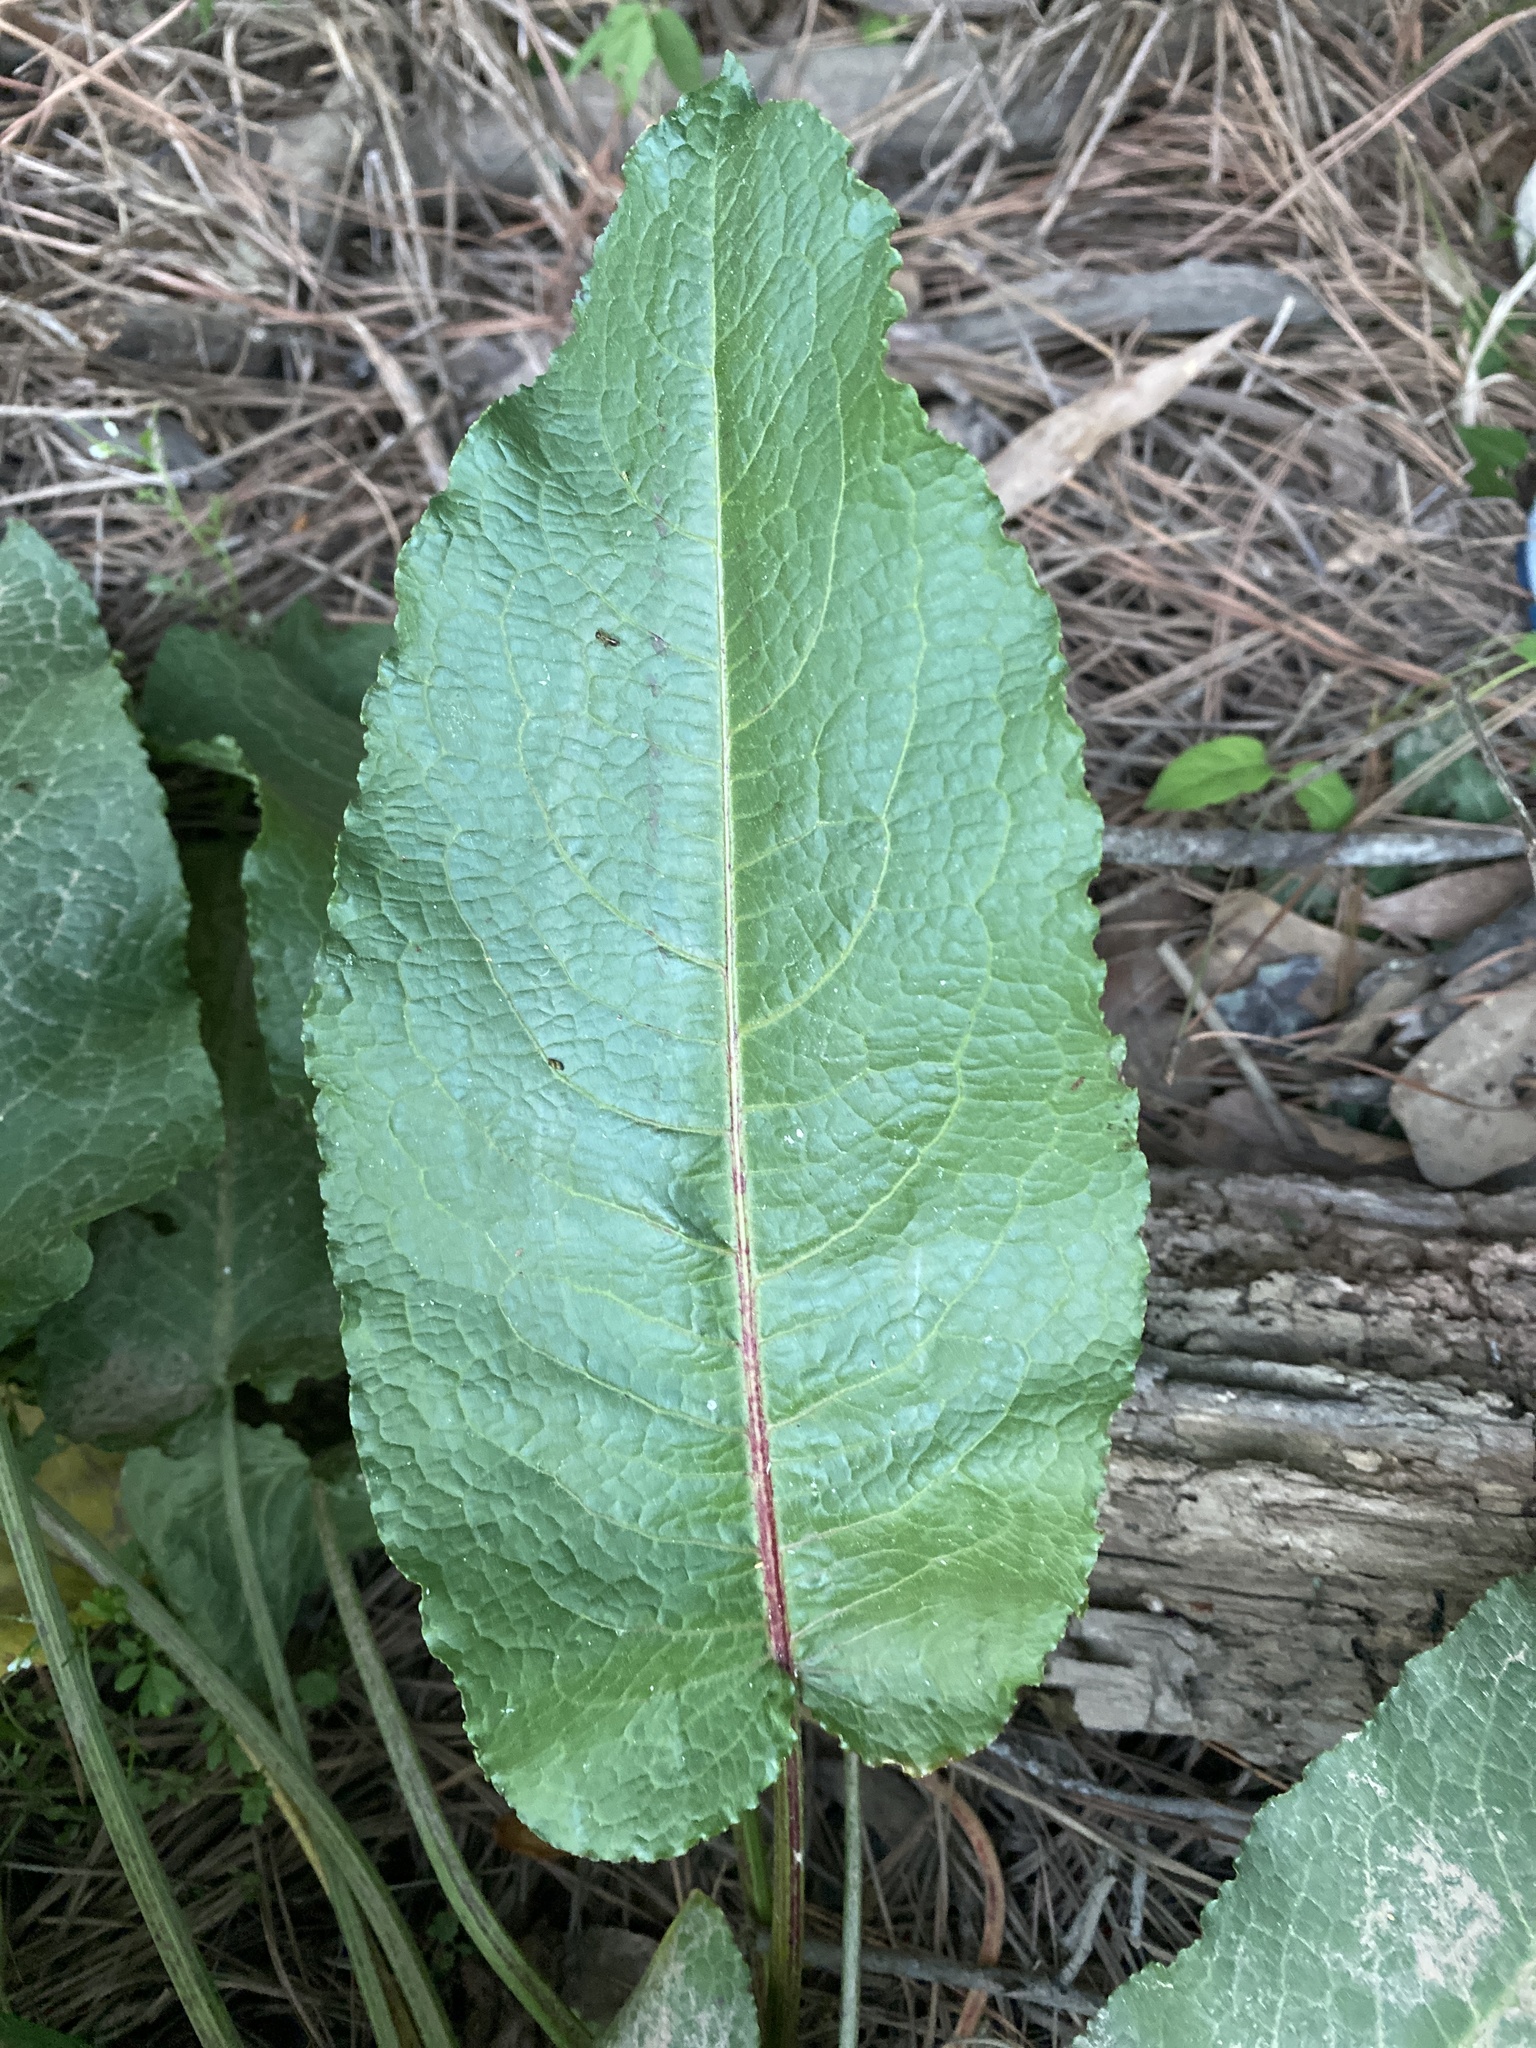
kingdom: Plantae
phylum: Tracheophyta
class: Magnoliopsida
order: Caryophyllales
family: Polygonaceae
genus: Rumex
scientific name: Rumex obtusifolius
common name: Bitter dock
